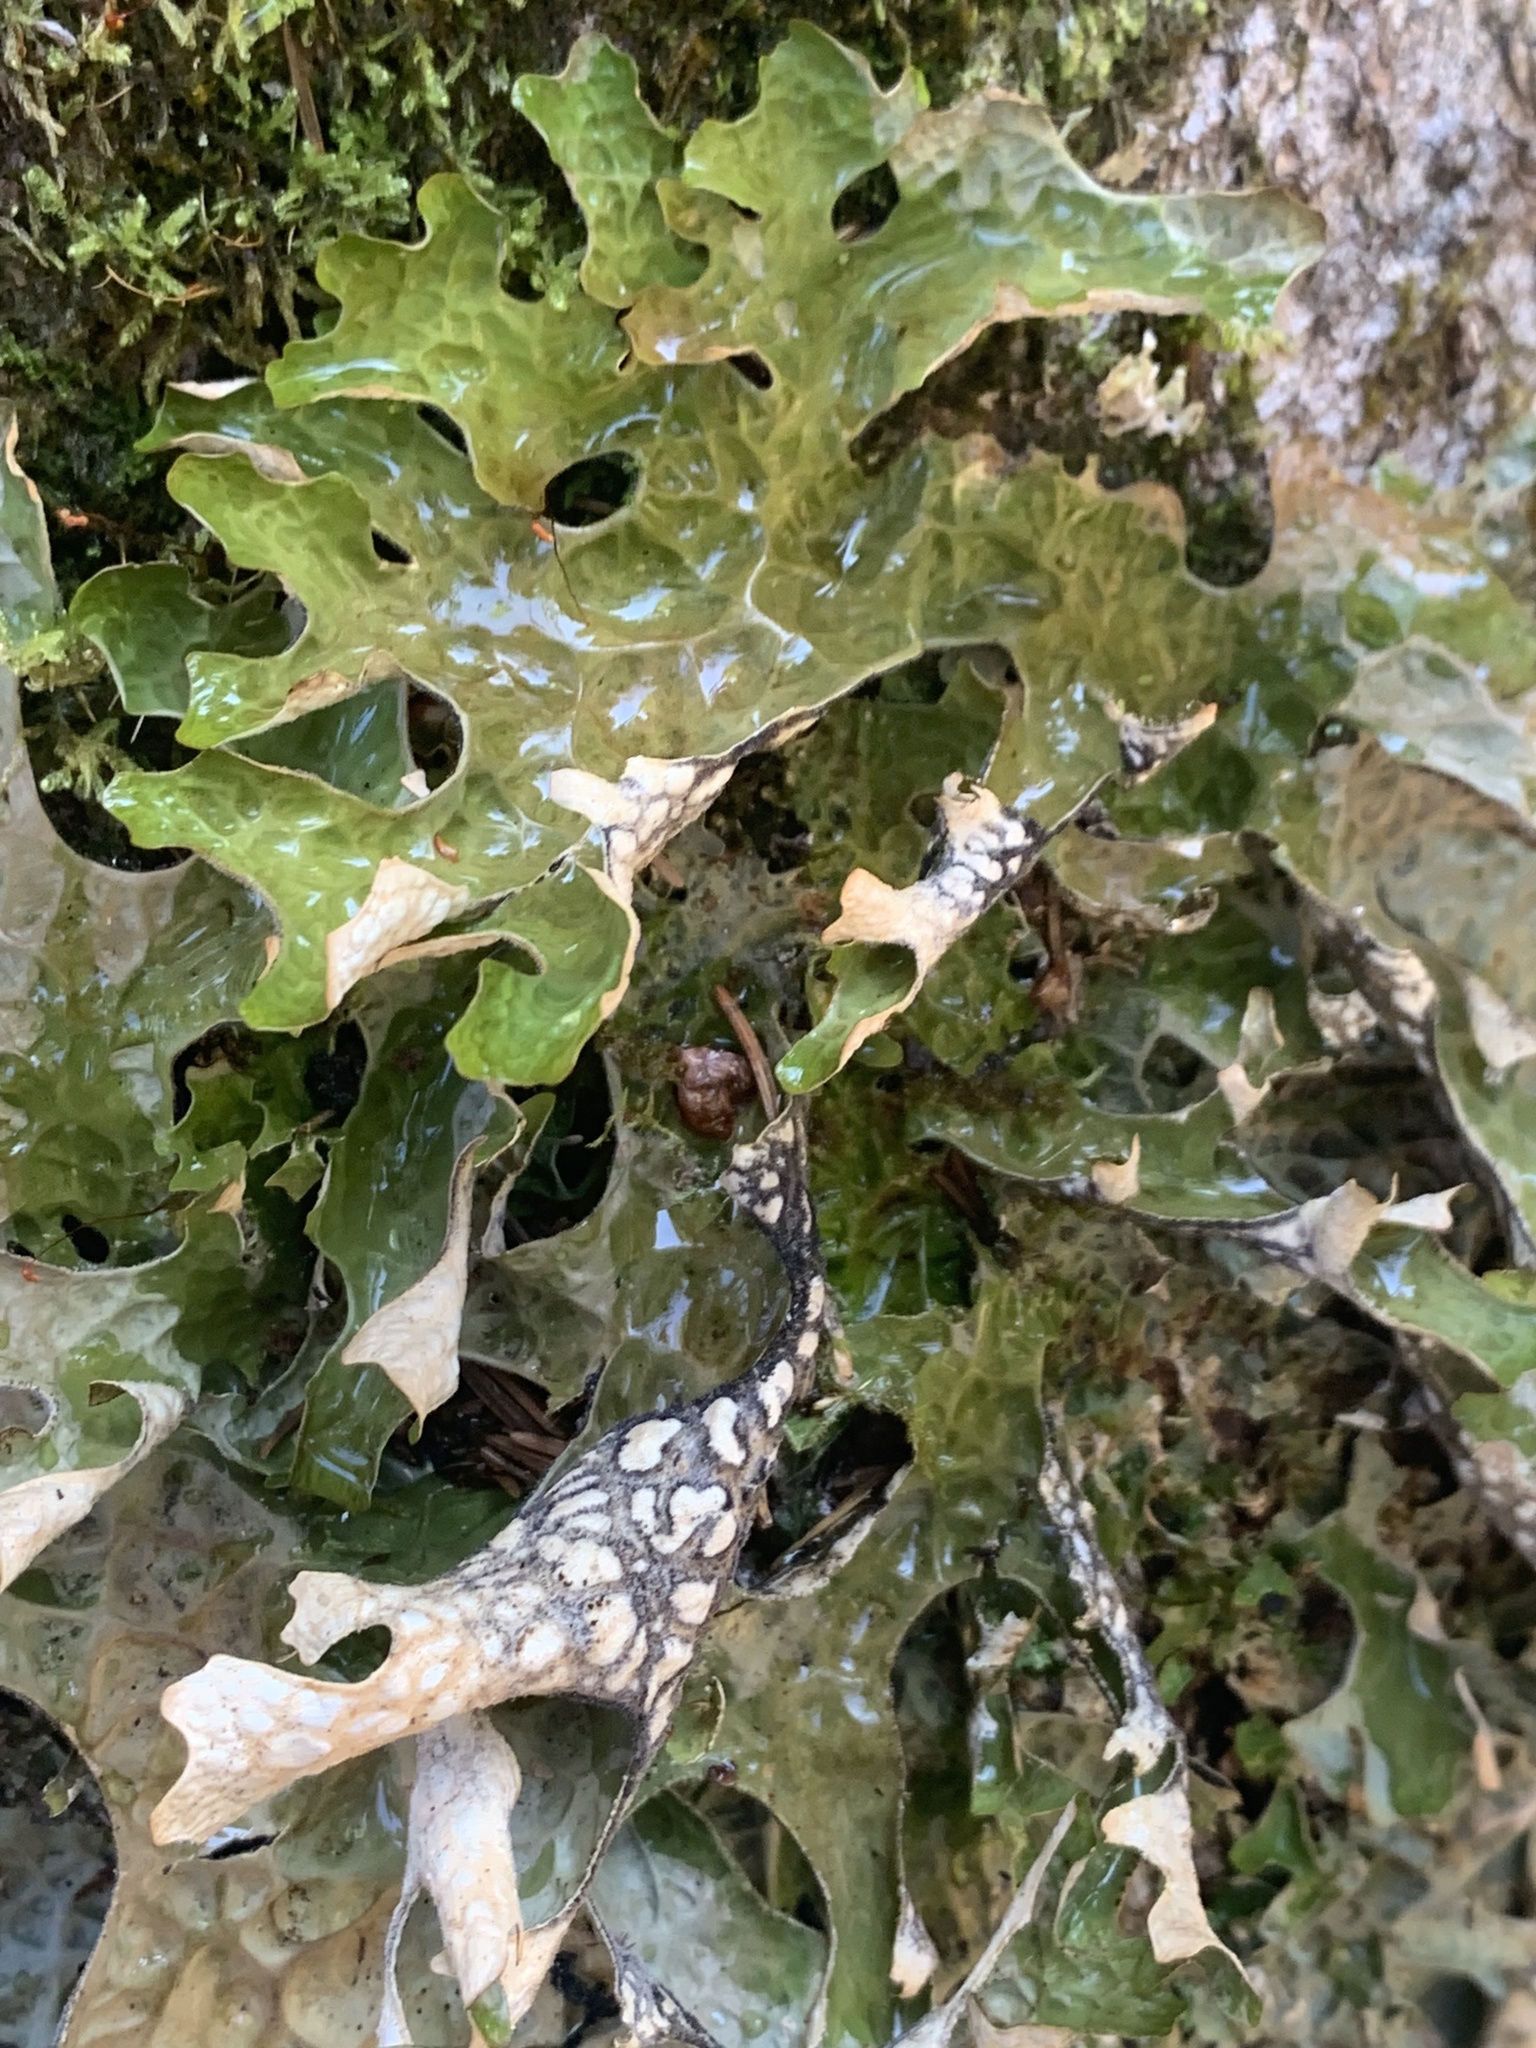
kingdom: Fungi
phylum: Ascomycota
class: Lecanoromycetes
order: Peltigerales
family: Lobariaceae
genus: Lobaria
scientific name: Lobaria pulmonaria
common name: Lungwort
